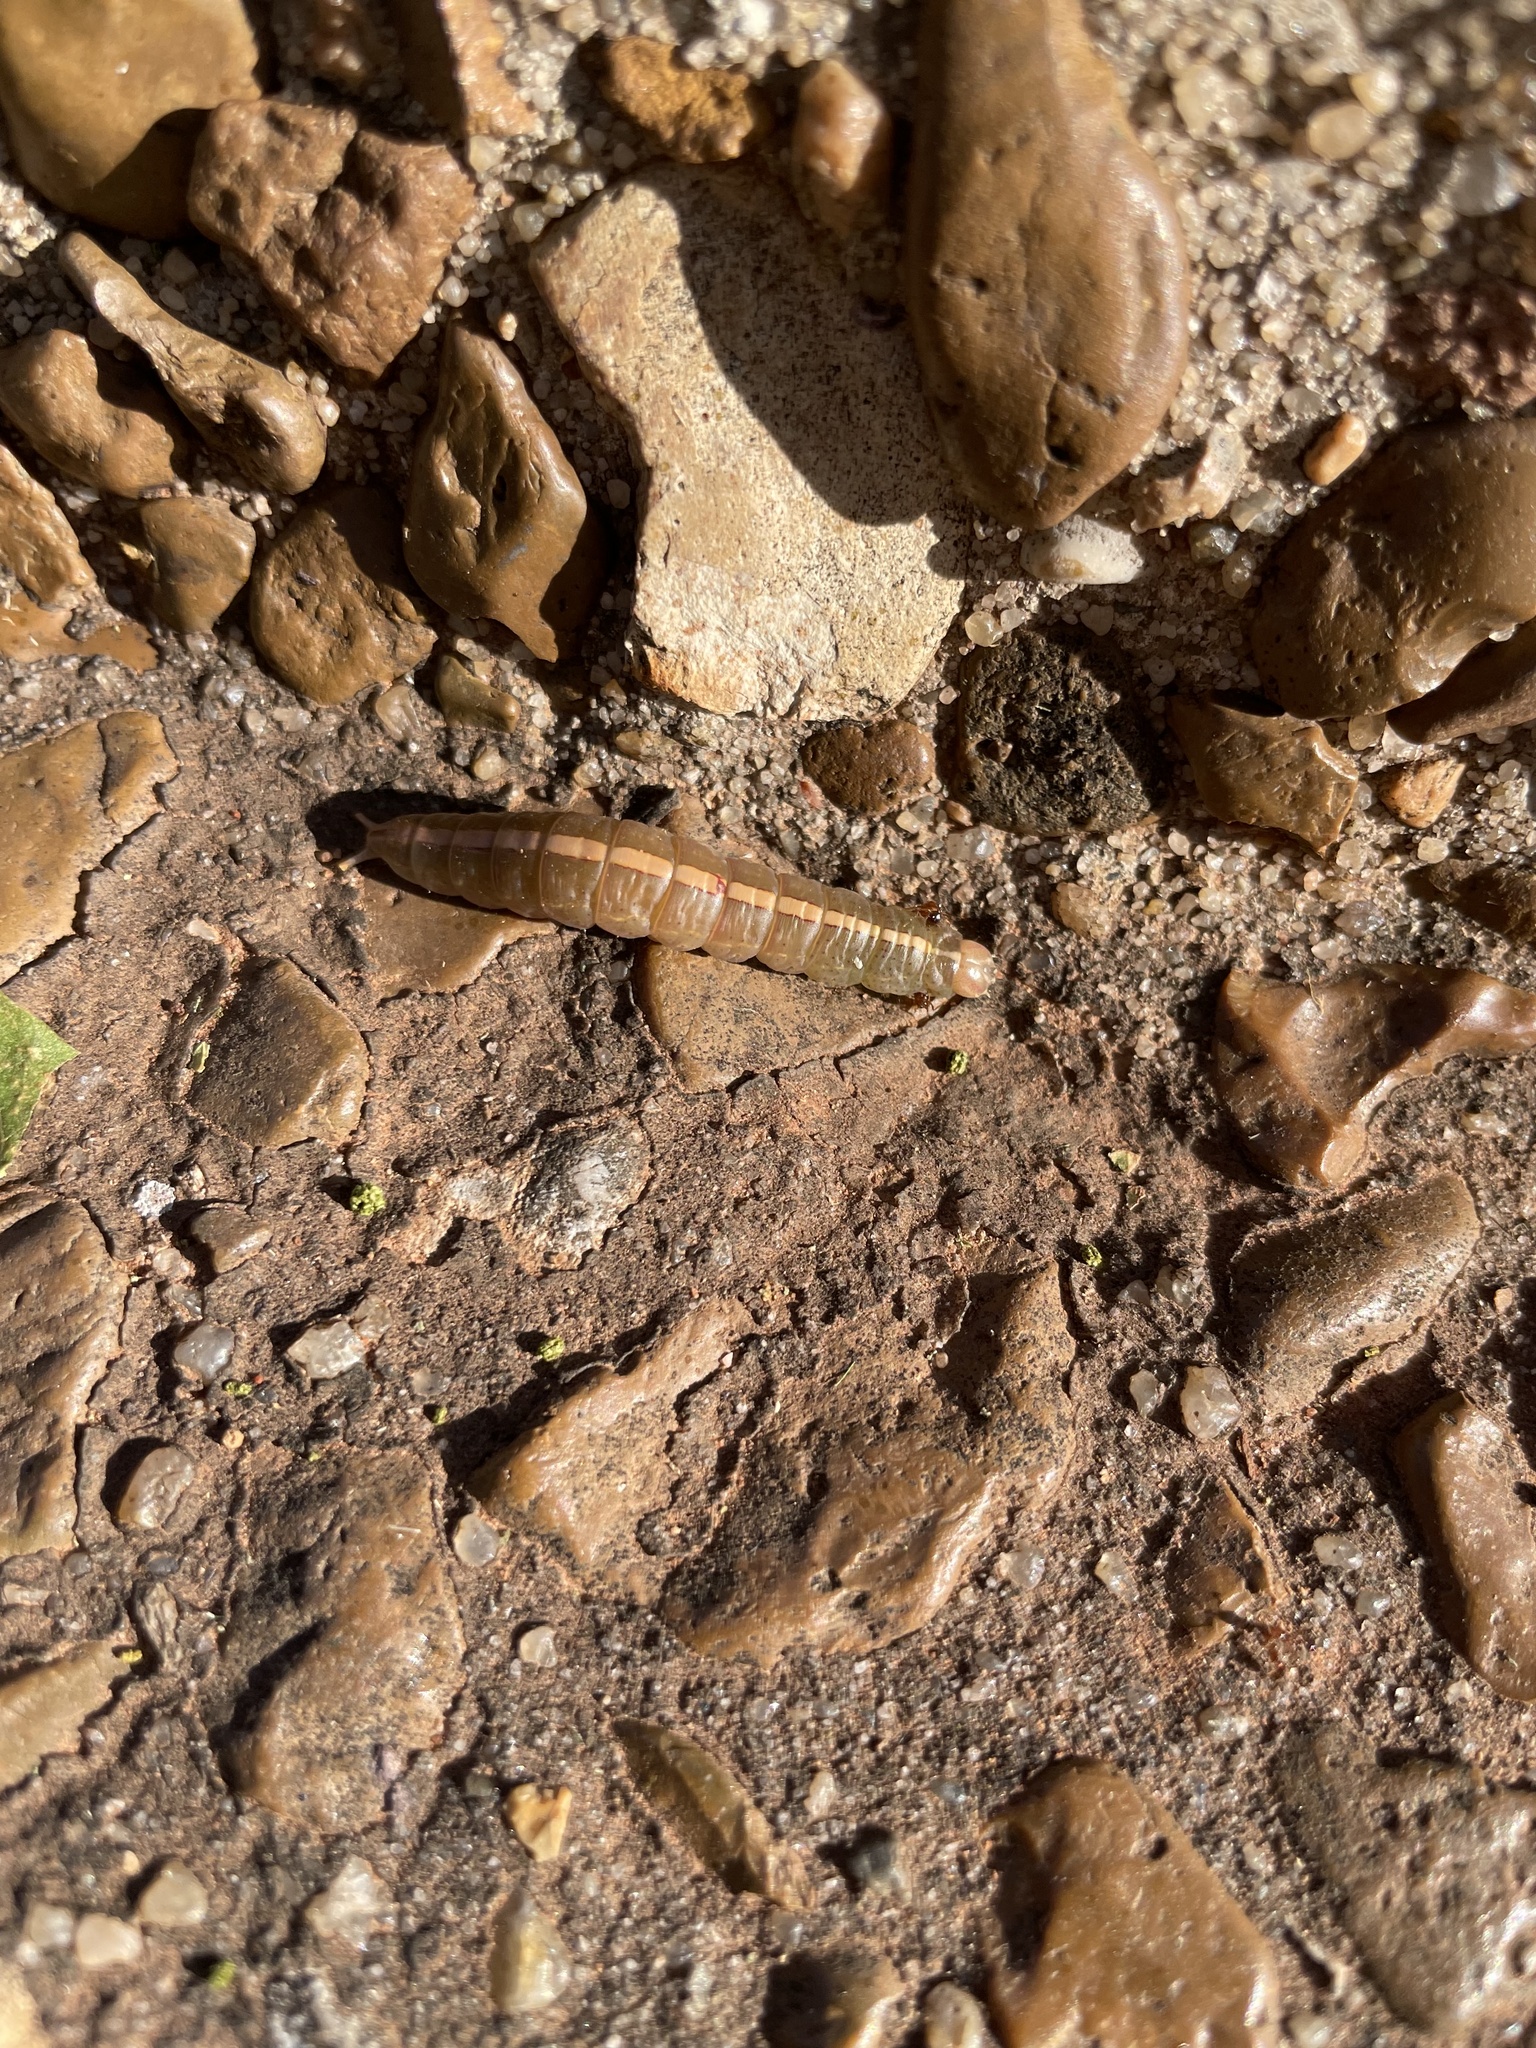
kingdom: Animalia
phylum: Arthropoda
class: Insecta
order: Lepidoptera
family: Notodontidae
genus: Misogada
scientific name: Misogada unicolor
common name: Drab prominent
